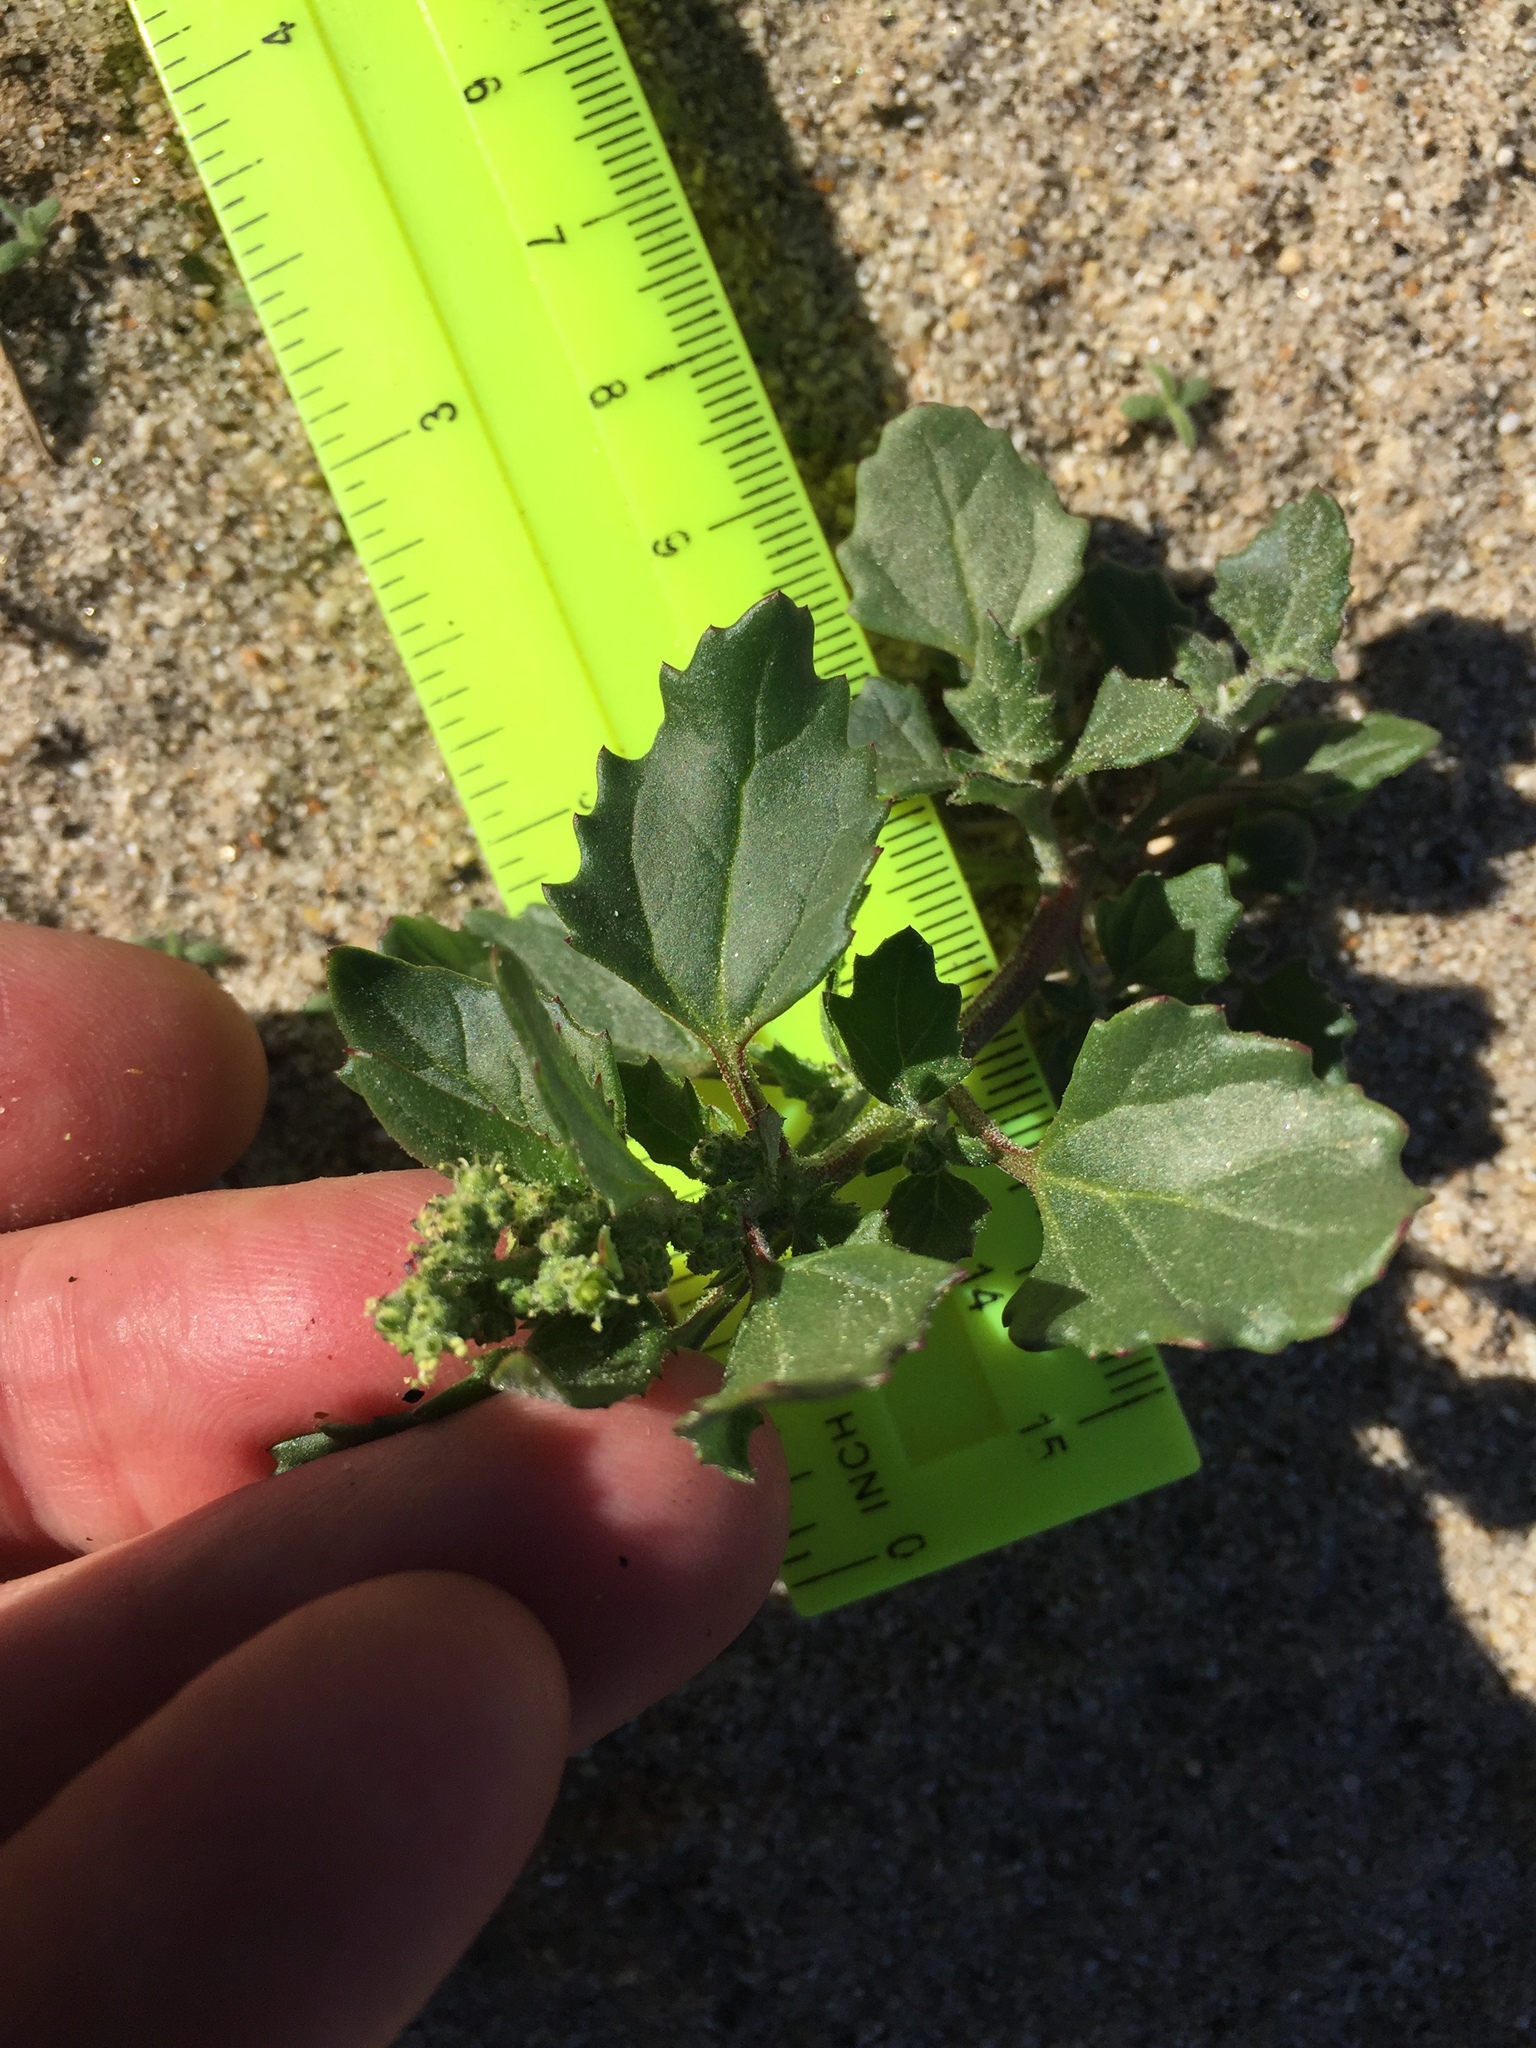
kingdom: Plantae
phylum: Tracheophyta
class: Magnoliopsida
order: Caryophyllales
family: Amaranthaceae
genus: Chenopodiastrum
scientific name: Chenopodiastrum murale
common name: Sowbane
